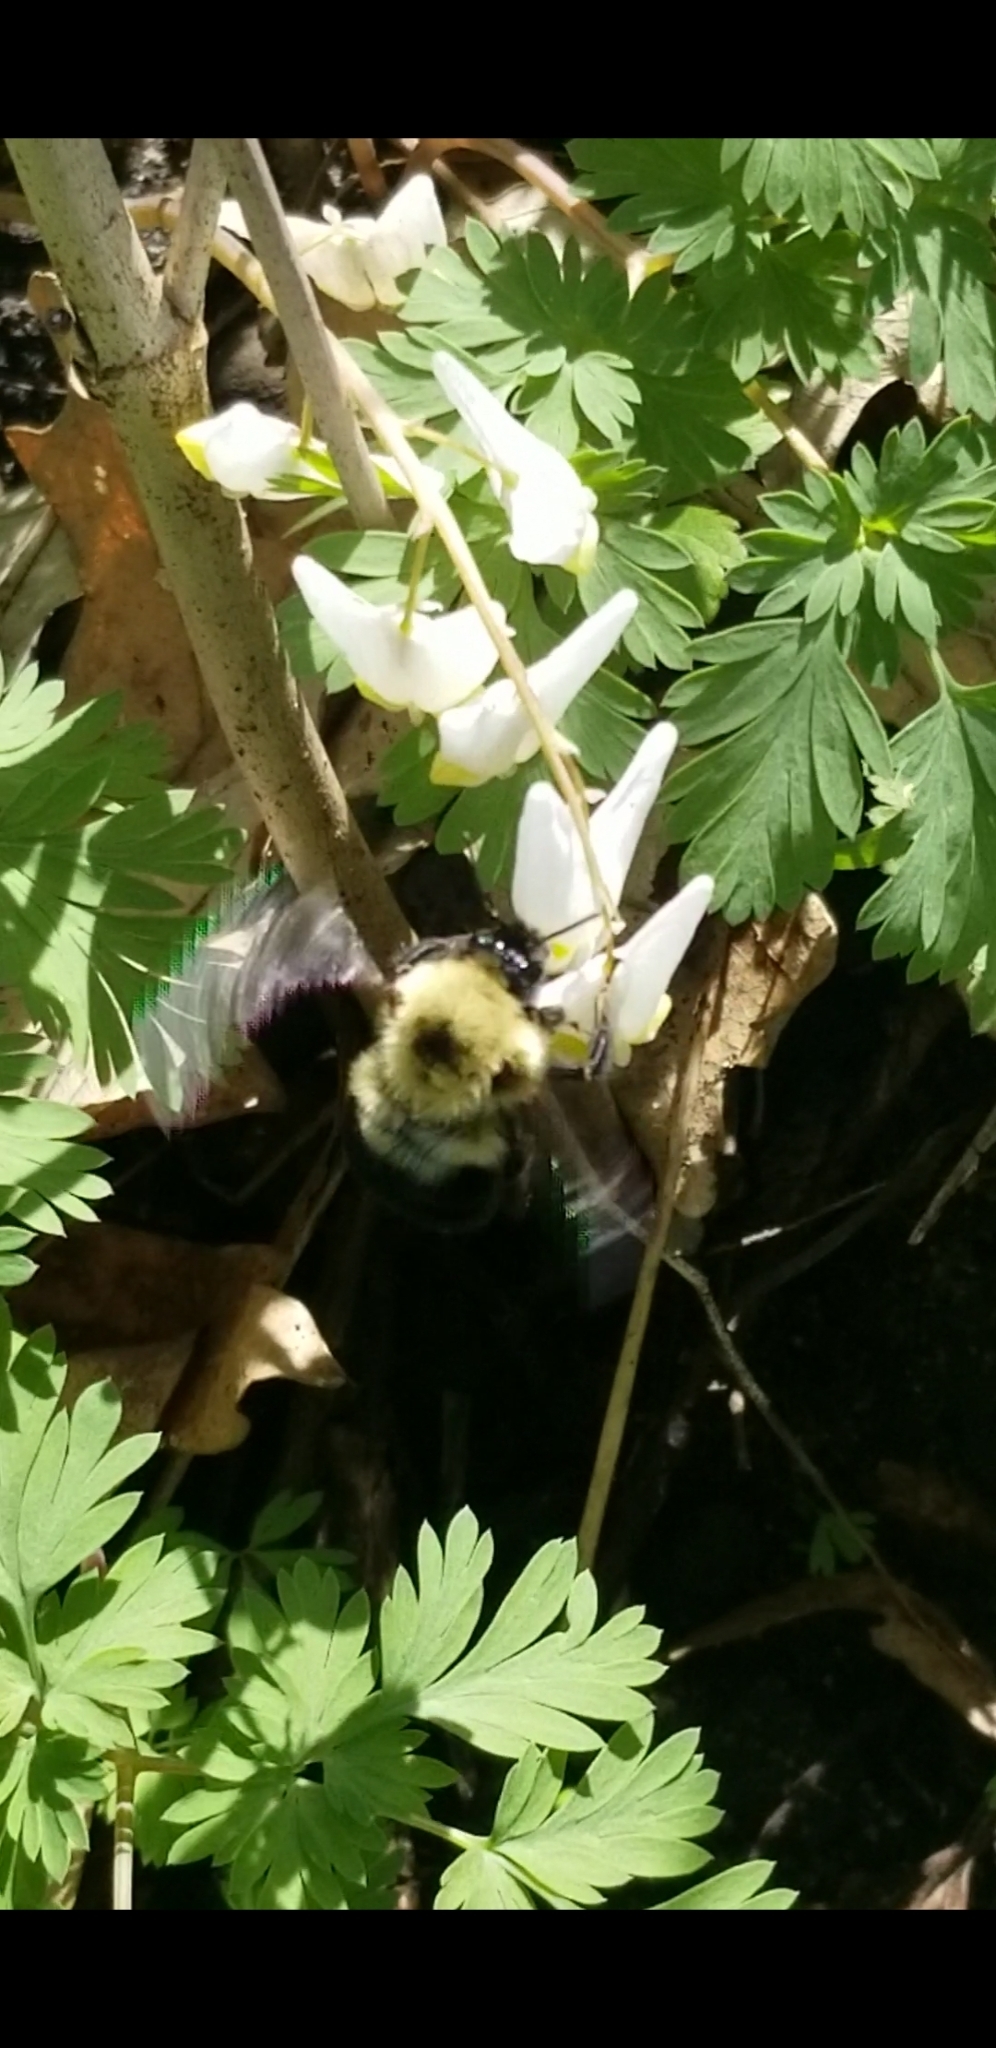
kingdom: Animalia
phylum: Arthropoda
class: Insecta
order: Hymenoptera
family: Apidae
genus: Bombus
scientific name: Bombus bimaculatus
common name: Two-spotted bumble bee
